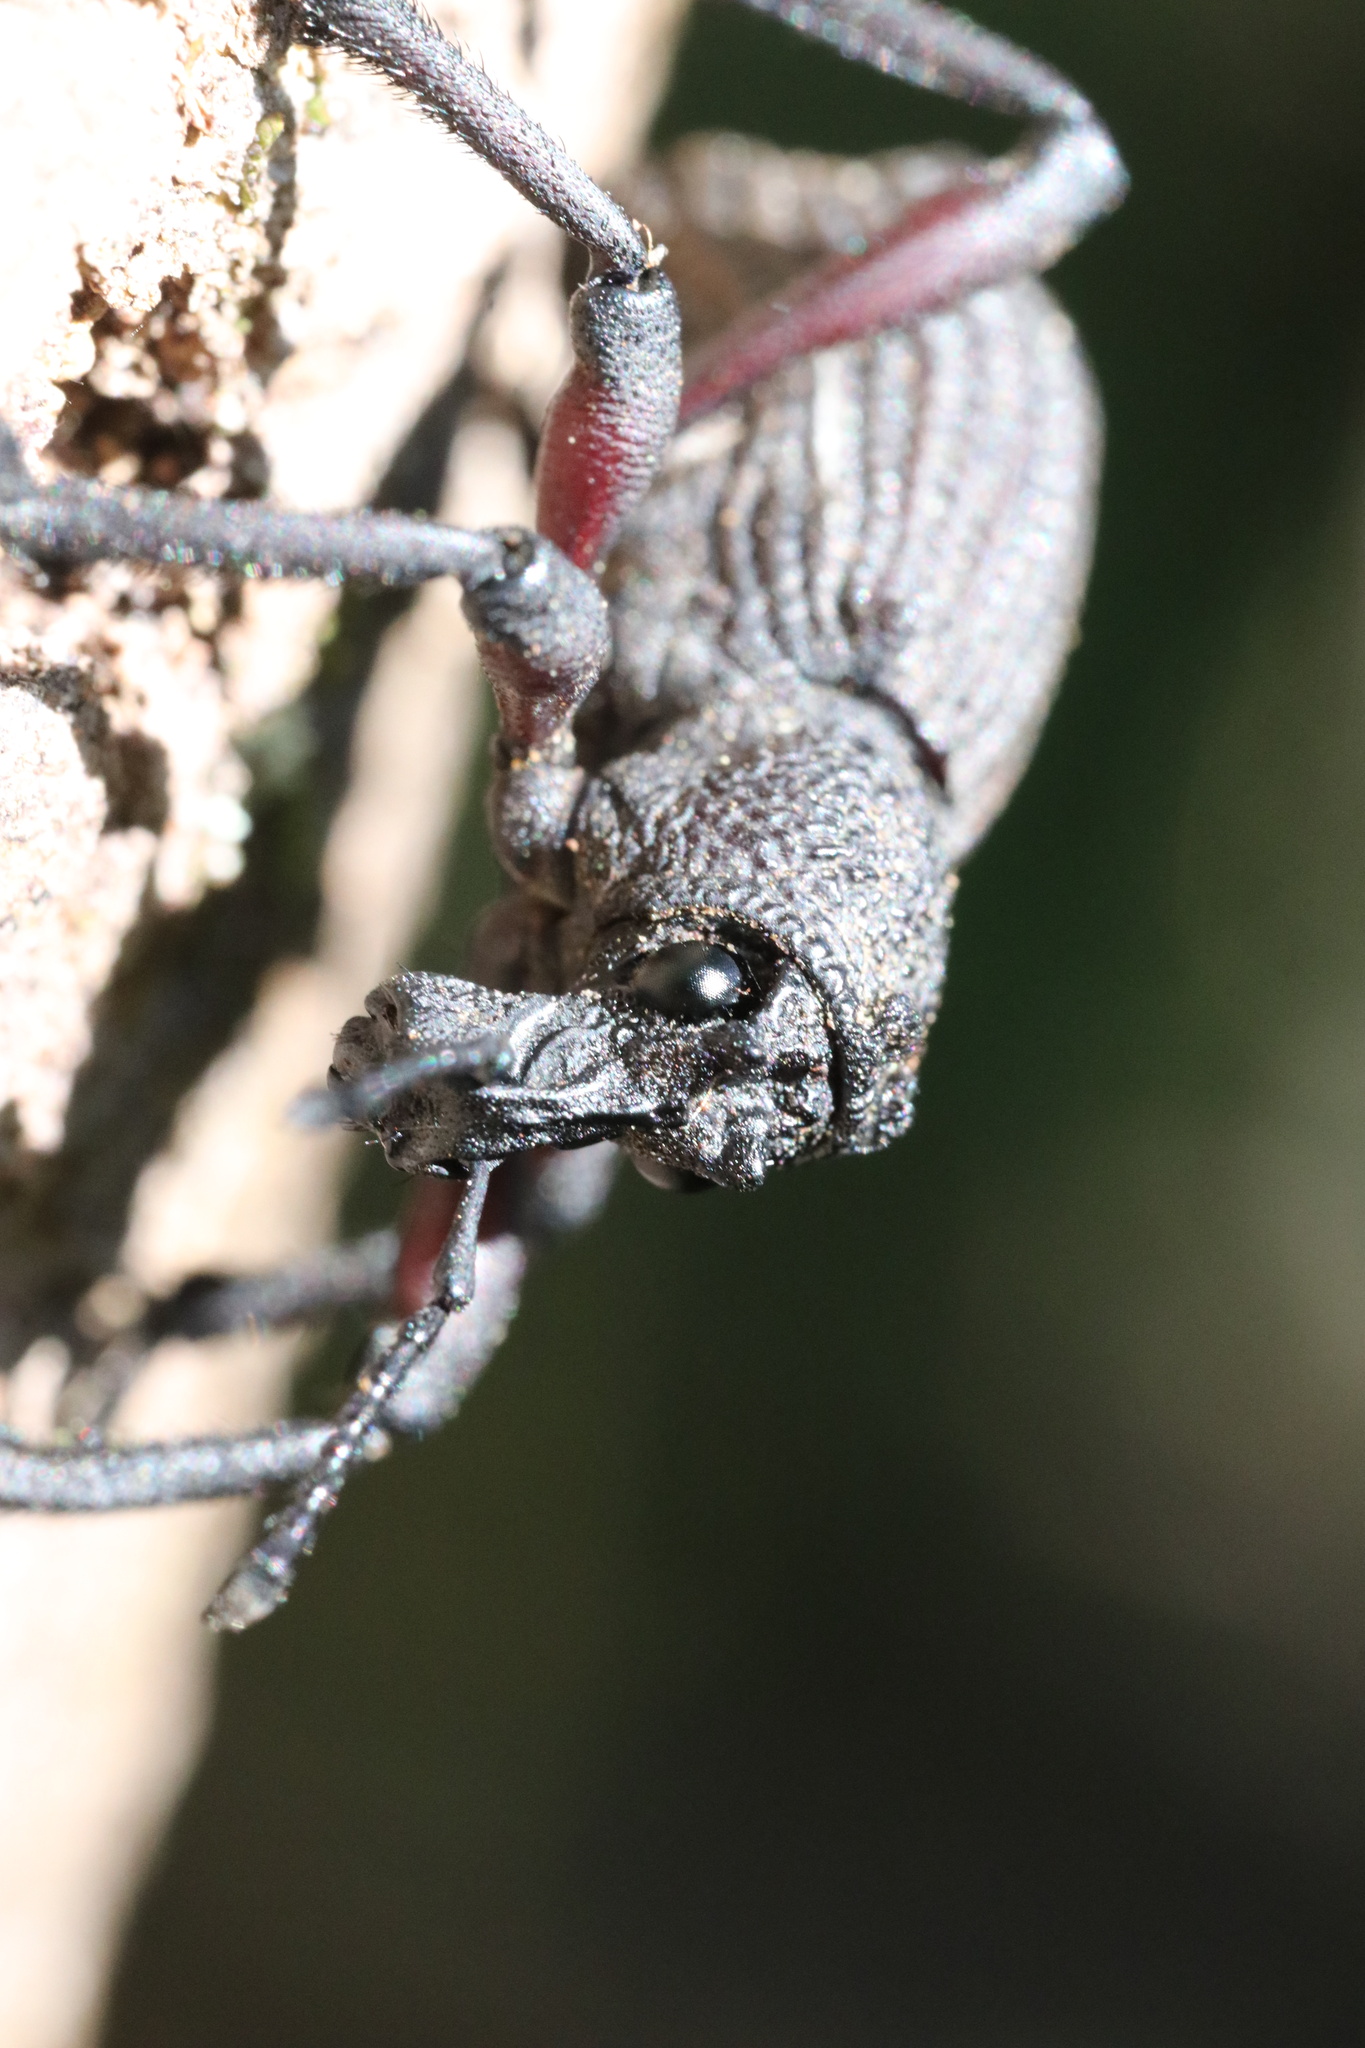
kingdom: Animalia
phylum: Arthropoda
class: Insecta
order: Coleoptera
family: Curculionidae
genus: Aegorhinus
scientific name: Aegorhinus
